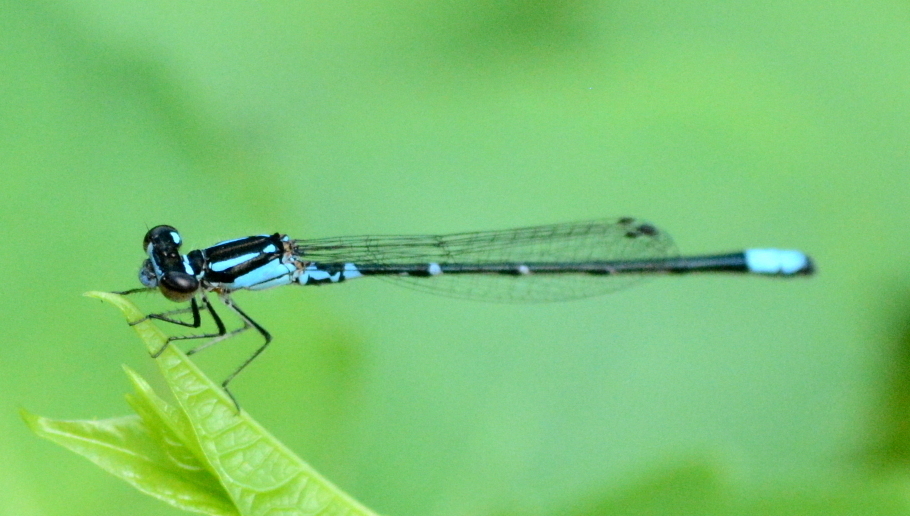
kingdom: Animalia
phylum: Arthropoda
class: Insecta
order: Odonata
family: Coenagrionidae
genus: Enallagma
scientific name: Enallagma geminatum
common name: Skimming bluet
